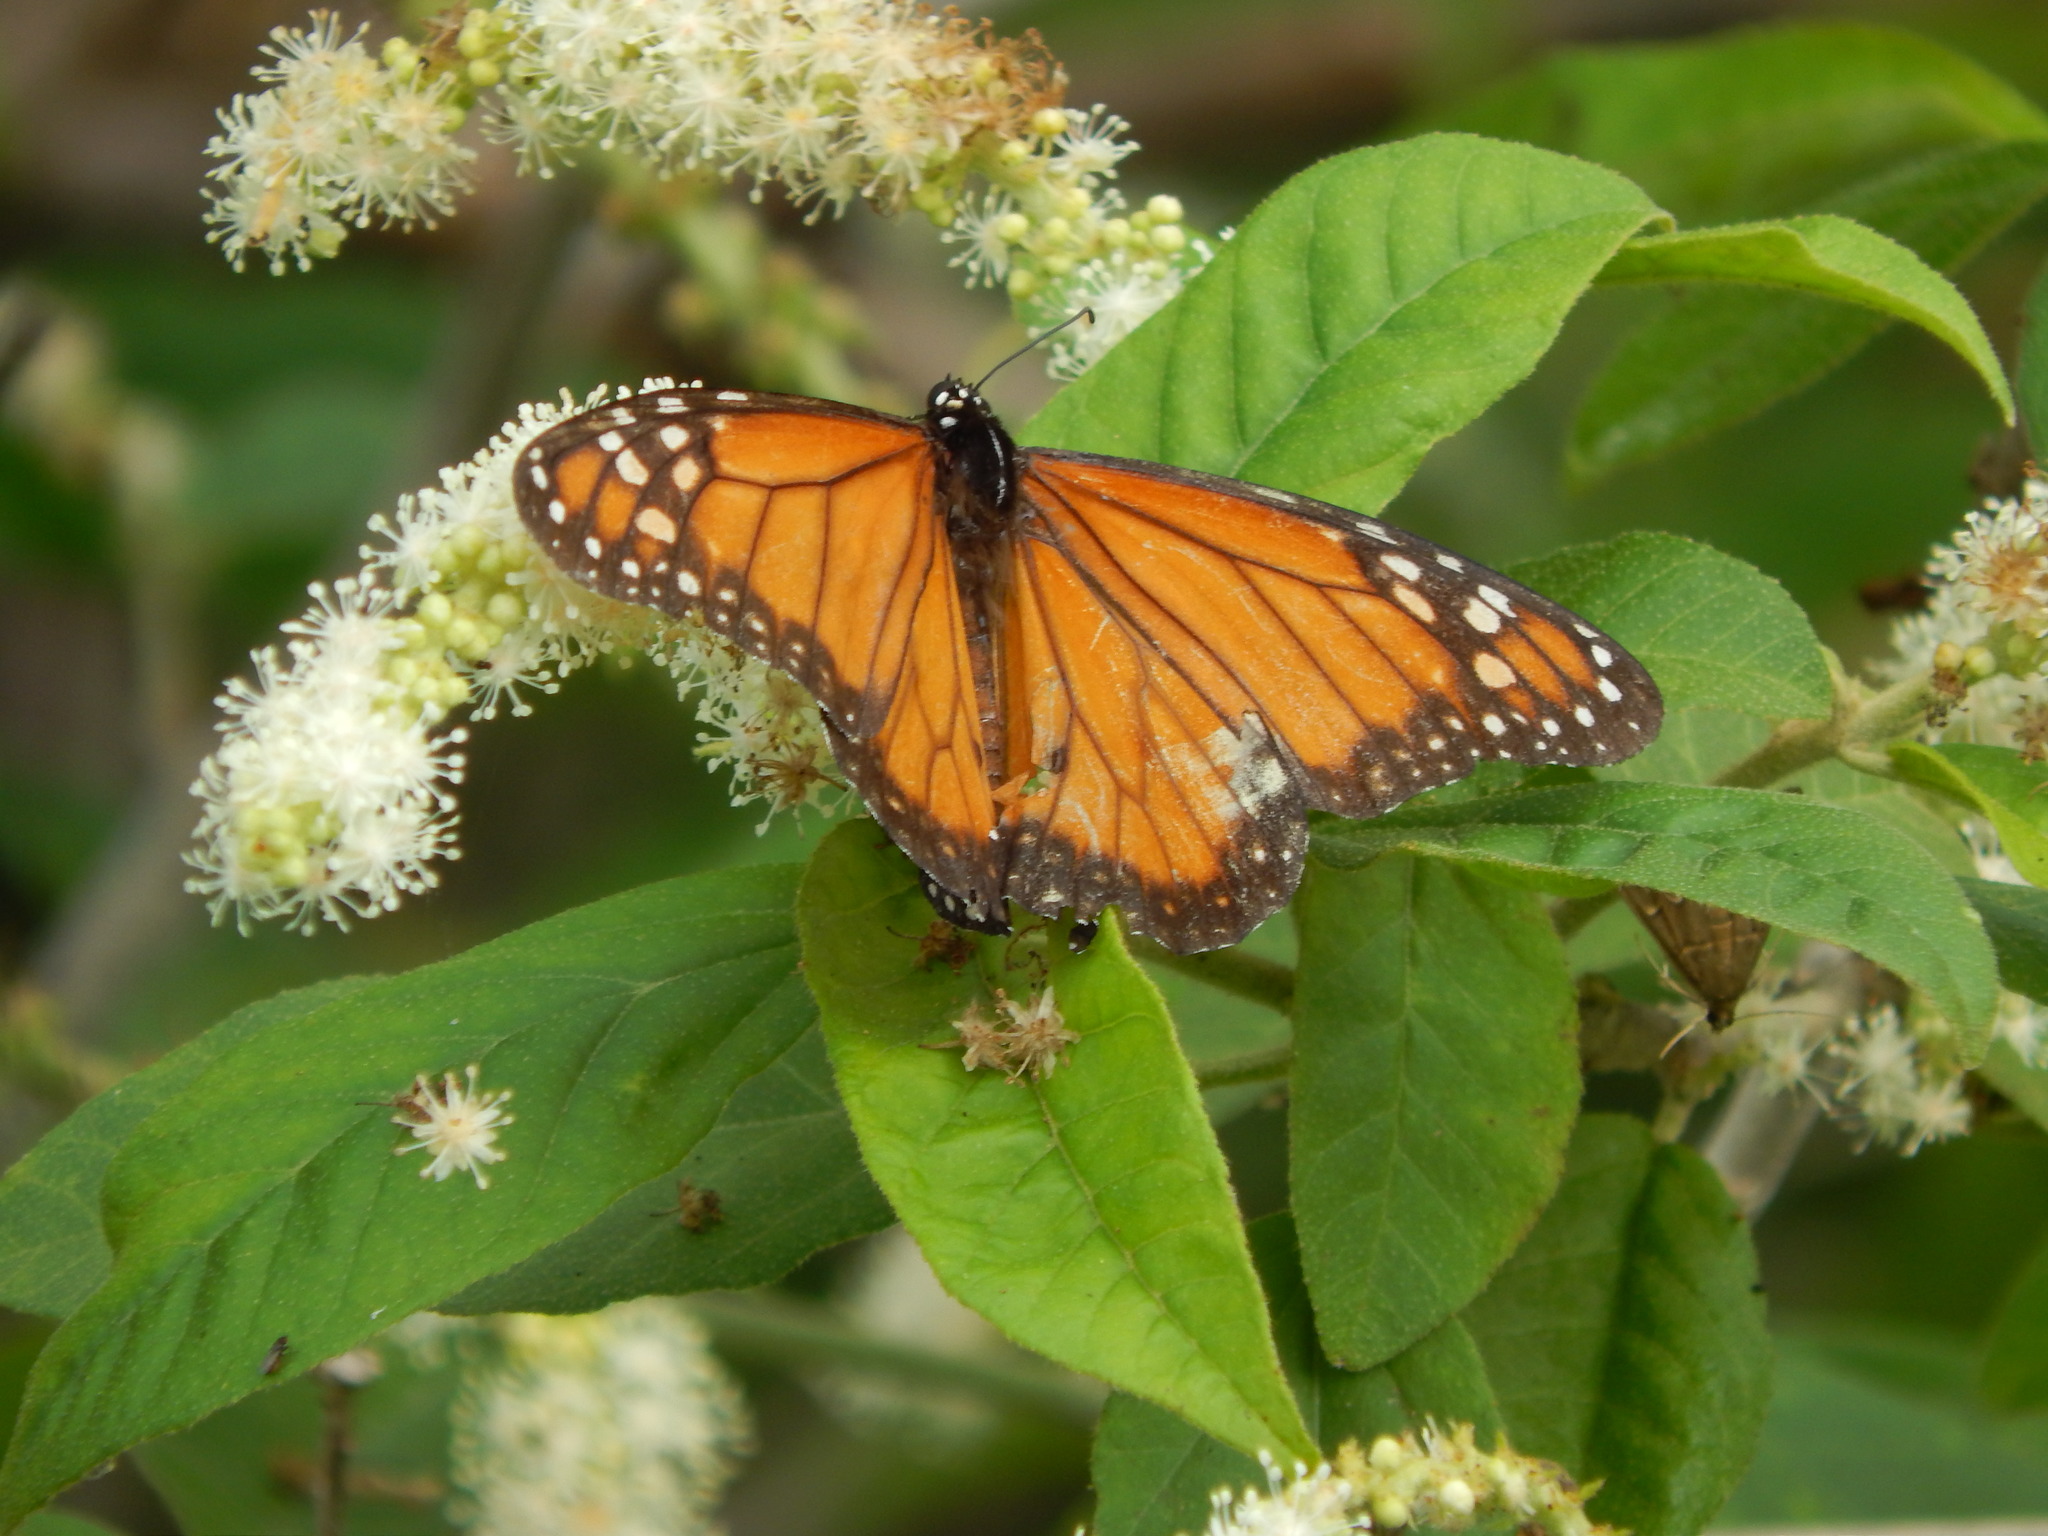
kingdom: Animalia
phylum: Arthropoda
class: Insecta
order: Lepidoptera
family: Nymphalidae
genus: Danaus
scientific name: Danaus erippus
